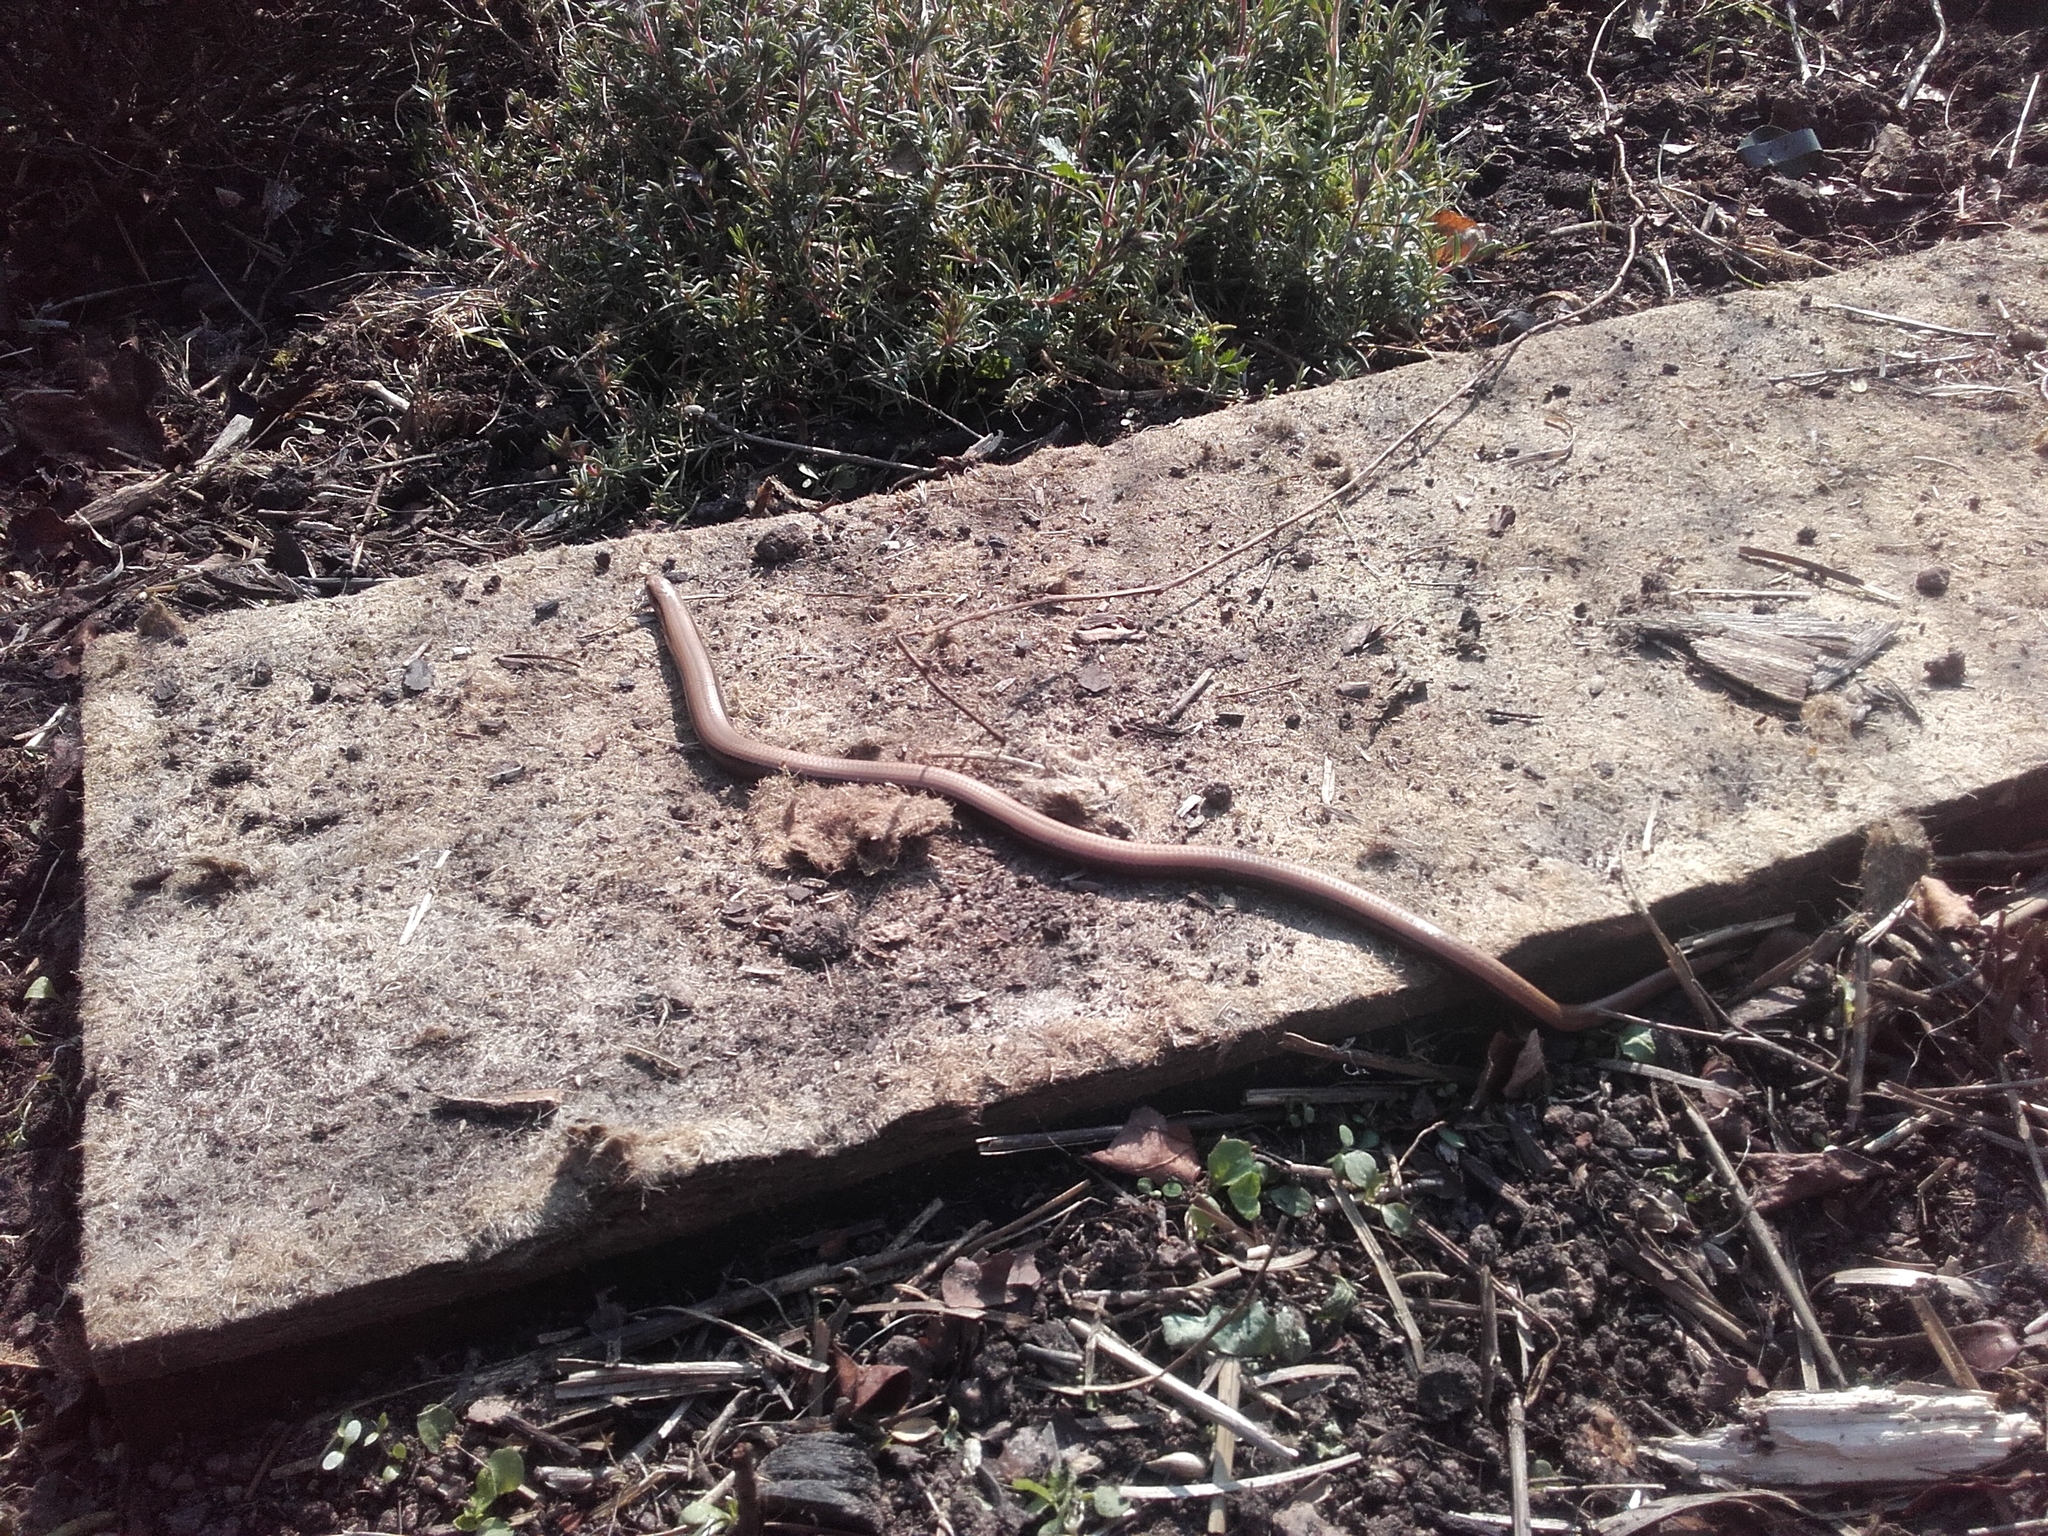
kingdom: Animalia
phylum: Chordata
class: Squamata
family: Anguidae
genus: Anguis
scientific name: Anguis fragilis
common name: Slow worm
